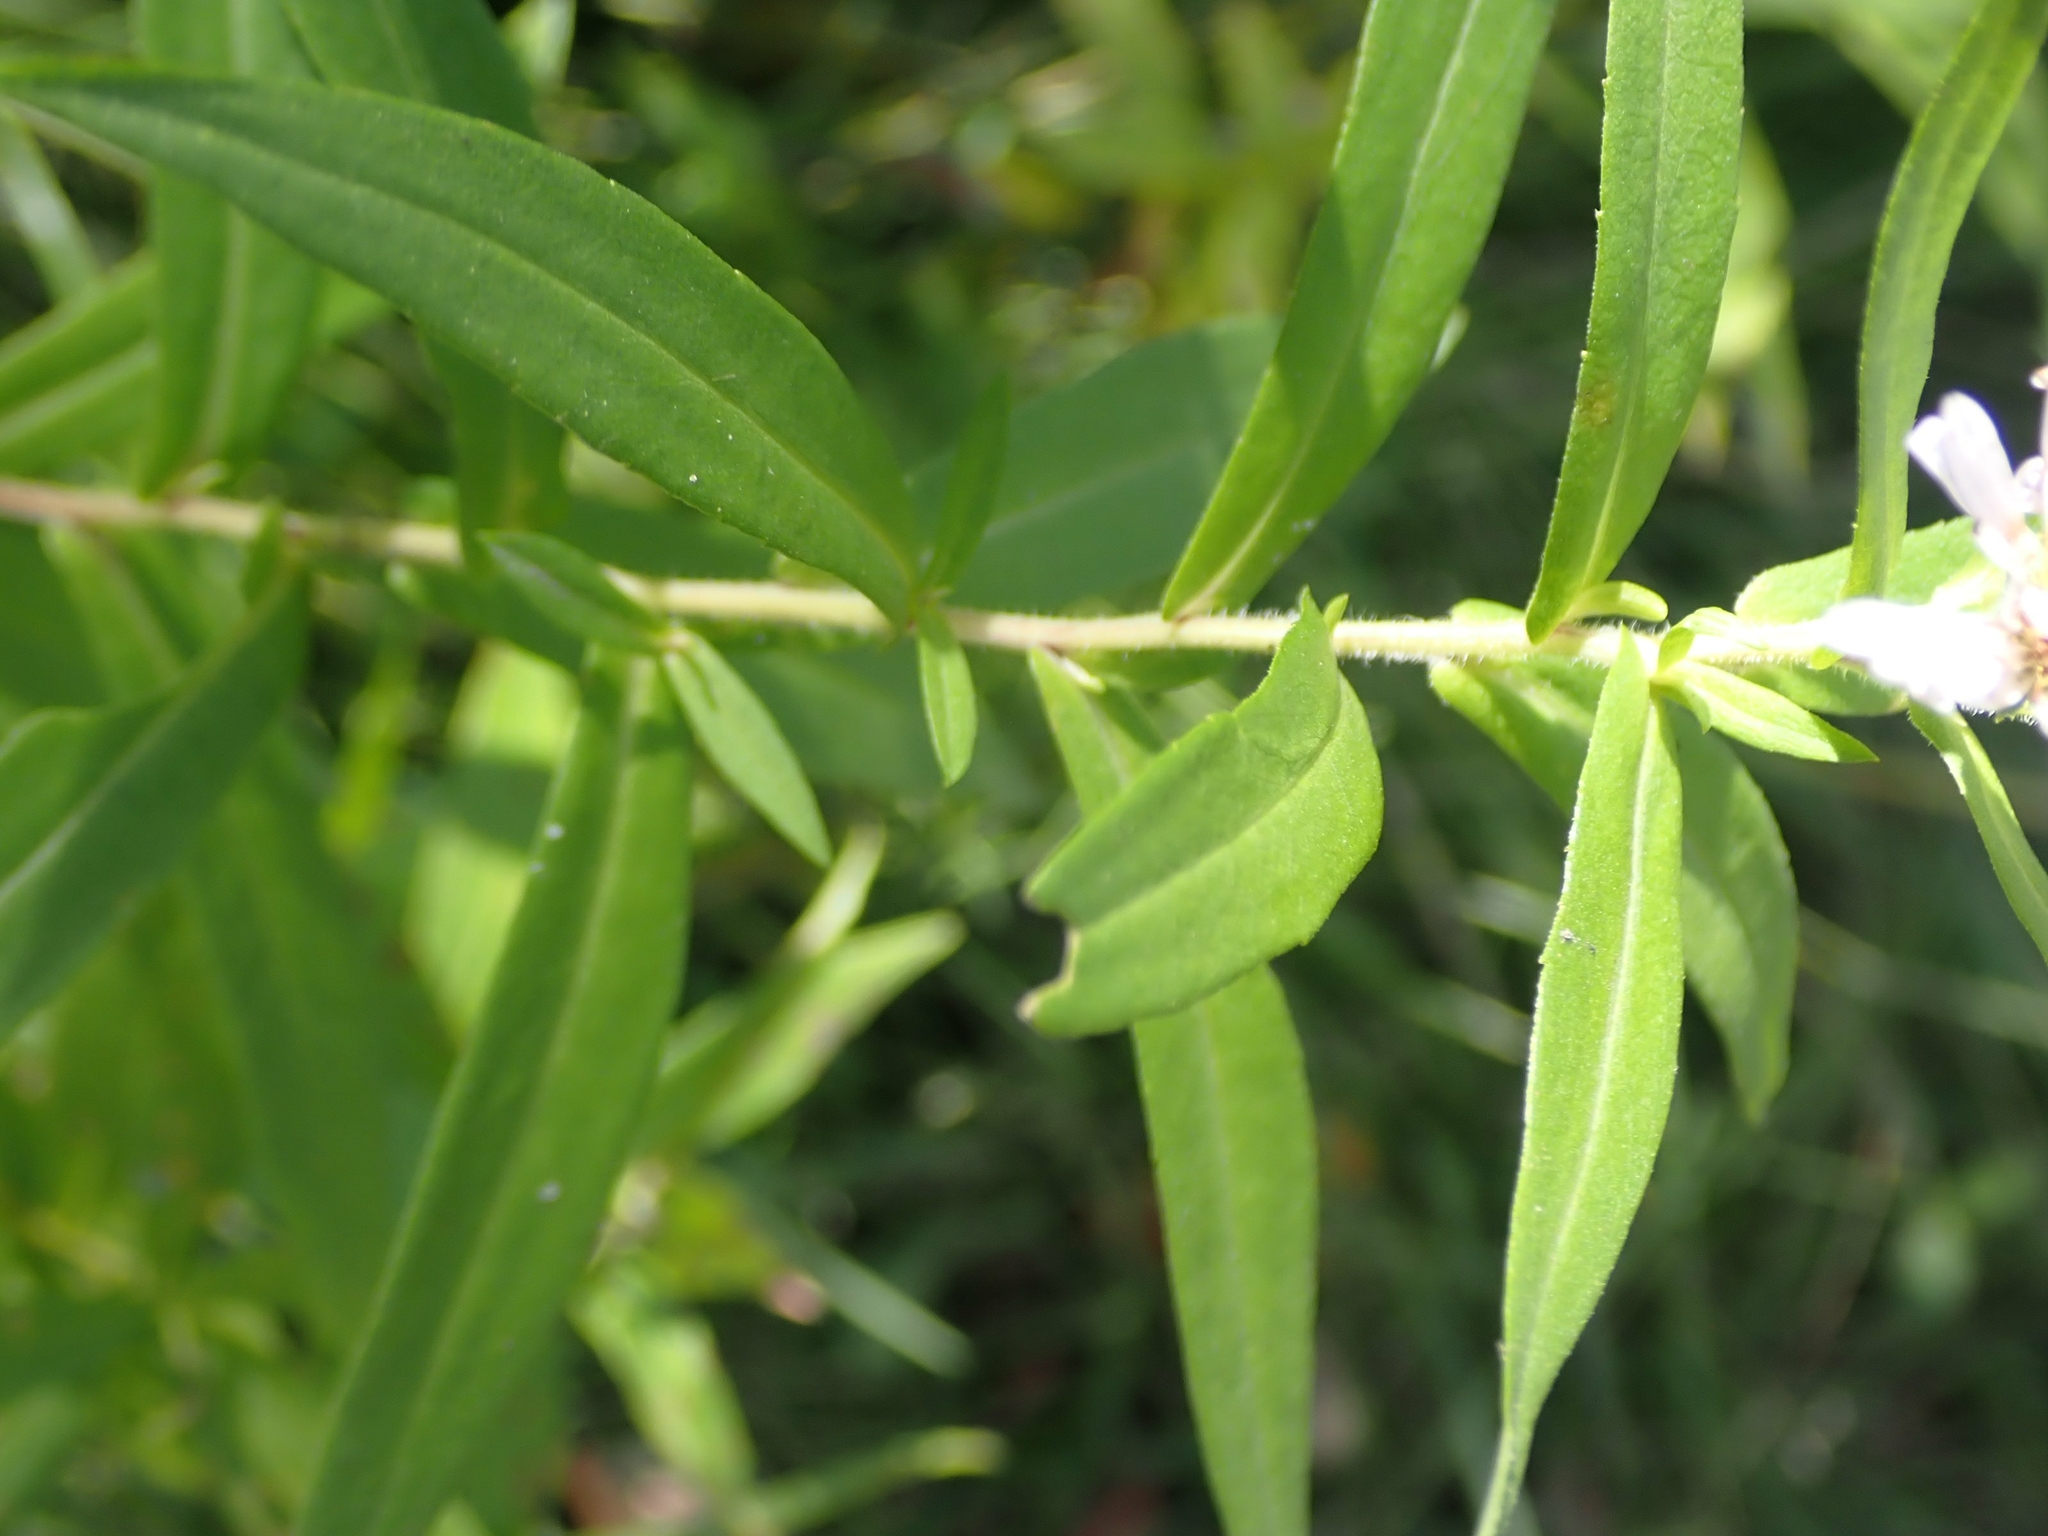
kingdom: Plantae
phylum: Tracheophyta
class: Magnoliopsida
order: Asterales
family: Asteraceae
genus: Symphyotrichum
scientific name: Symphyotrichum lanceolatum
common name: Panicled aster
